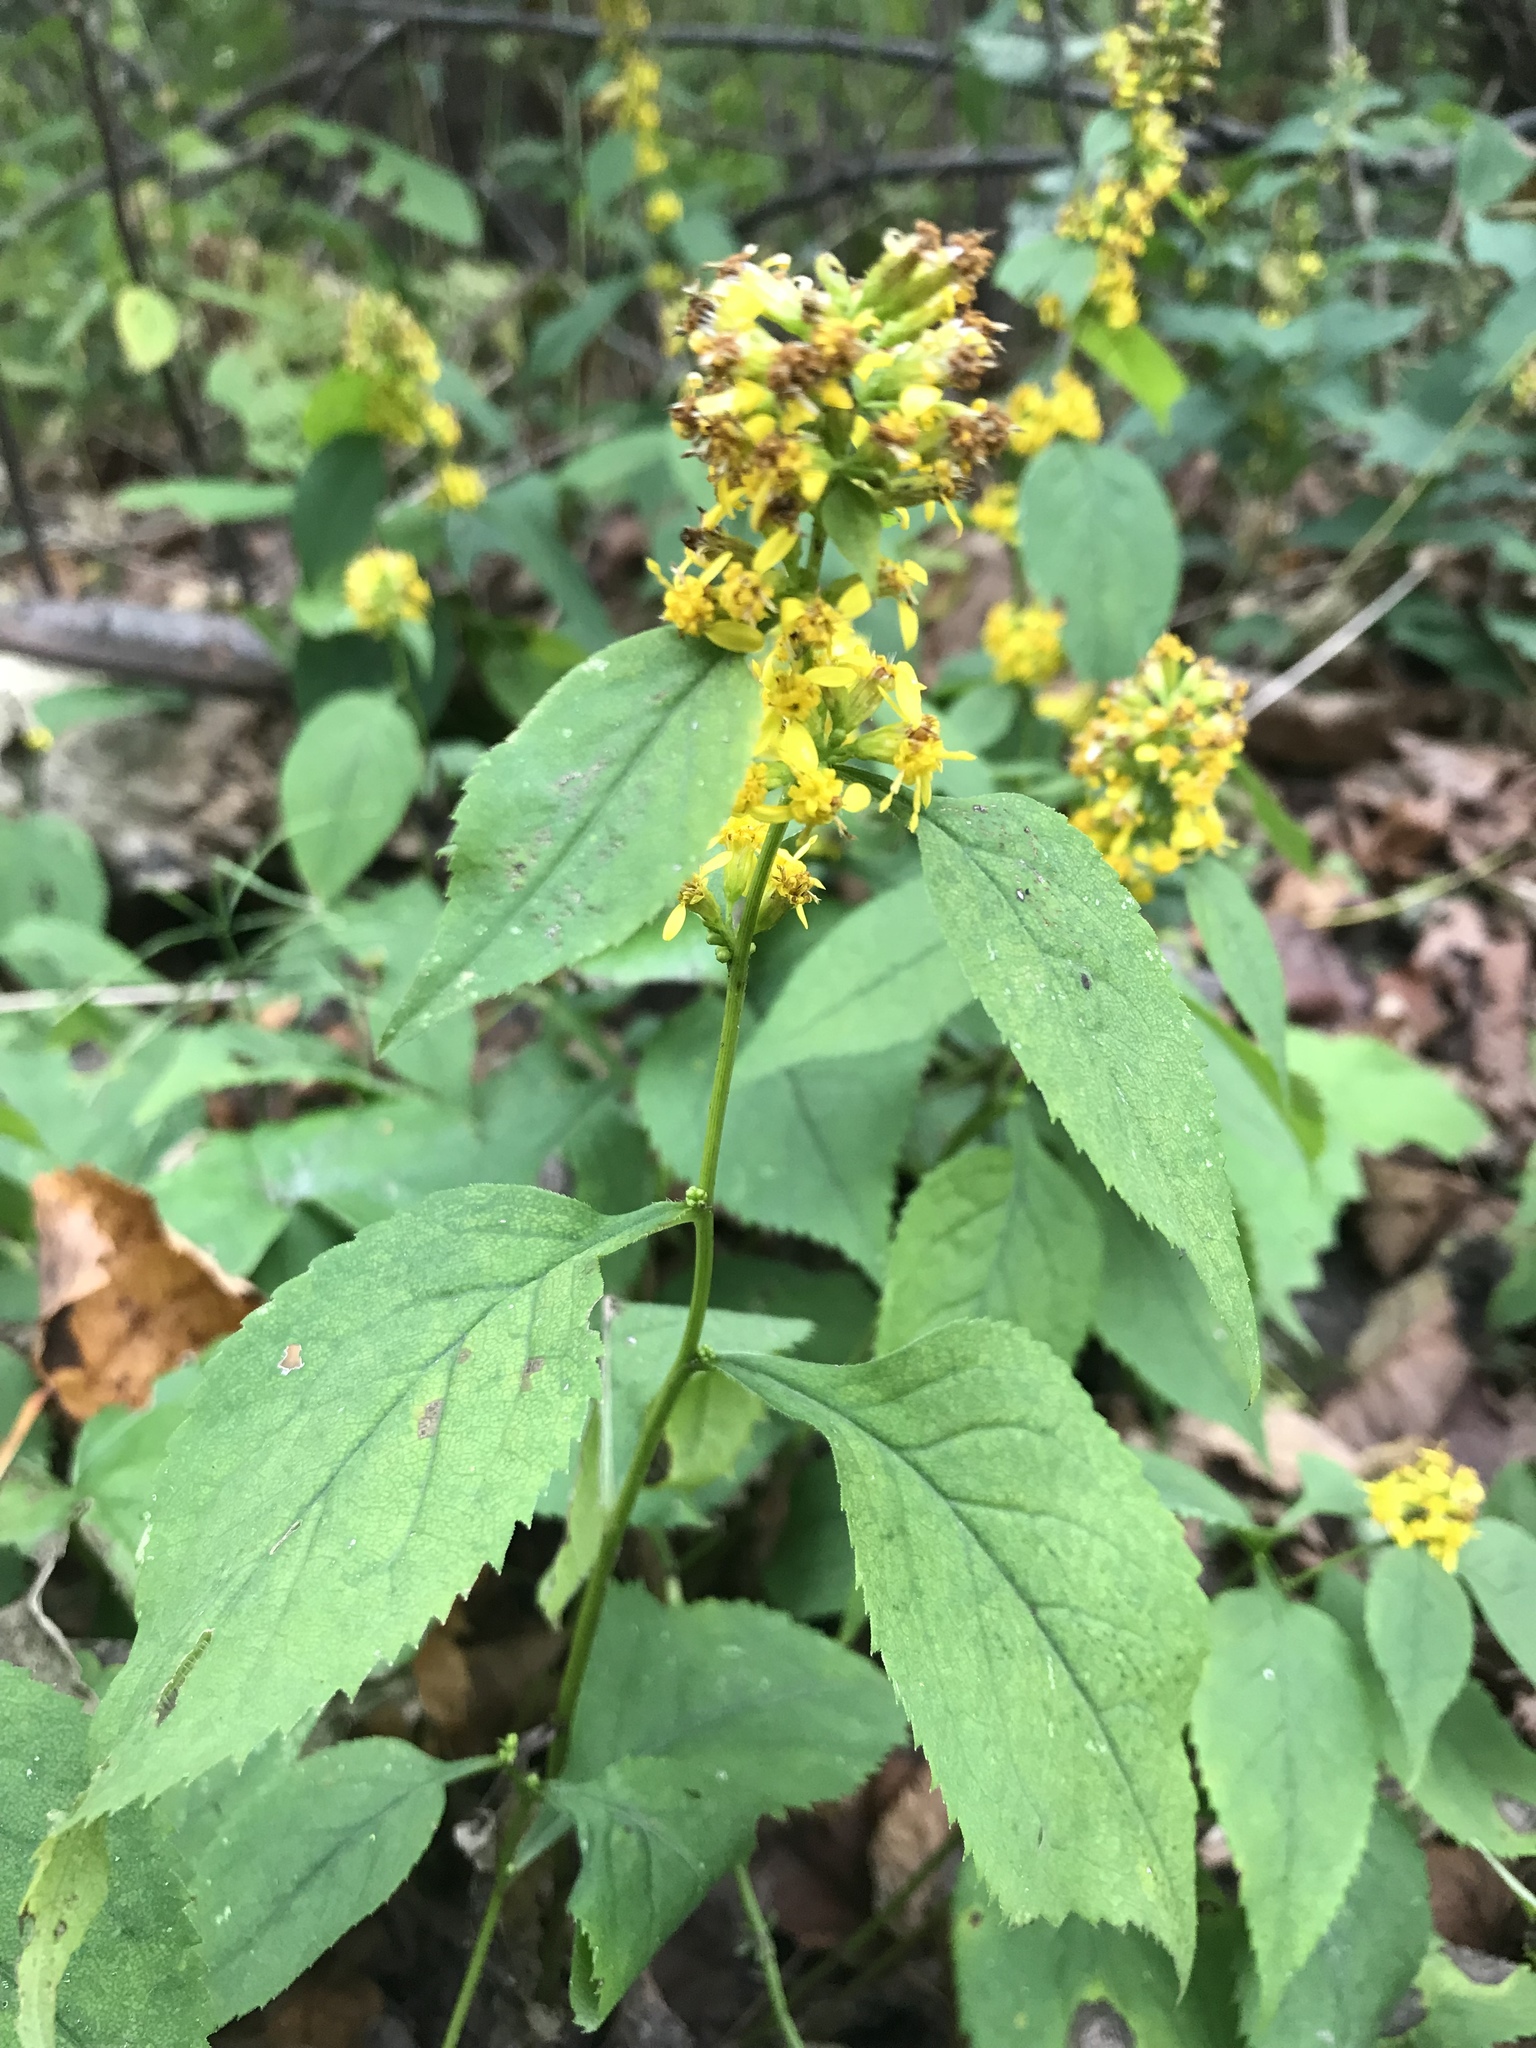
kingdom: Plantae
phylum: Tracheophyta
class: Magnoliopsida
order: Asterales
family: Asteraceae
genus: Solidago
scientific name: Solidago flexicaulis
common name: Zig-zag goldenrod
